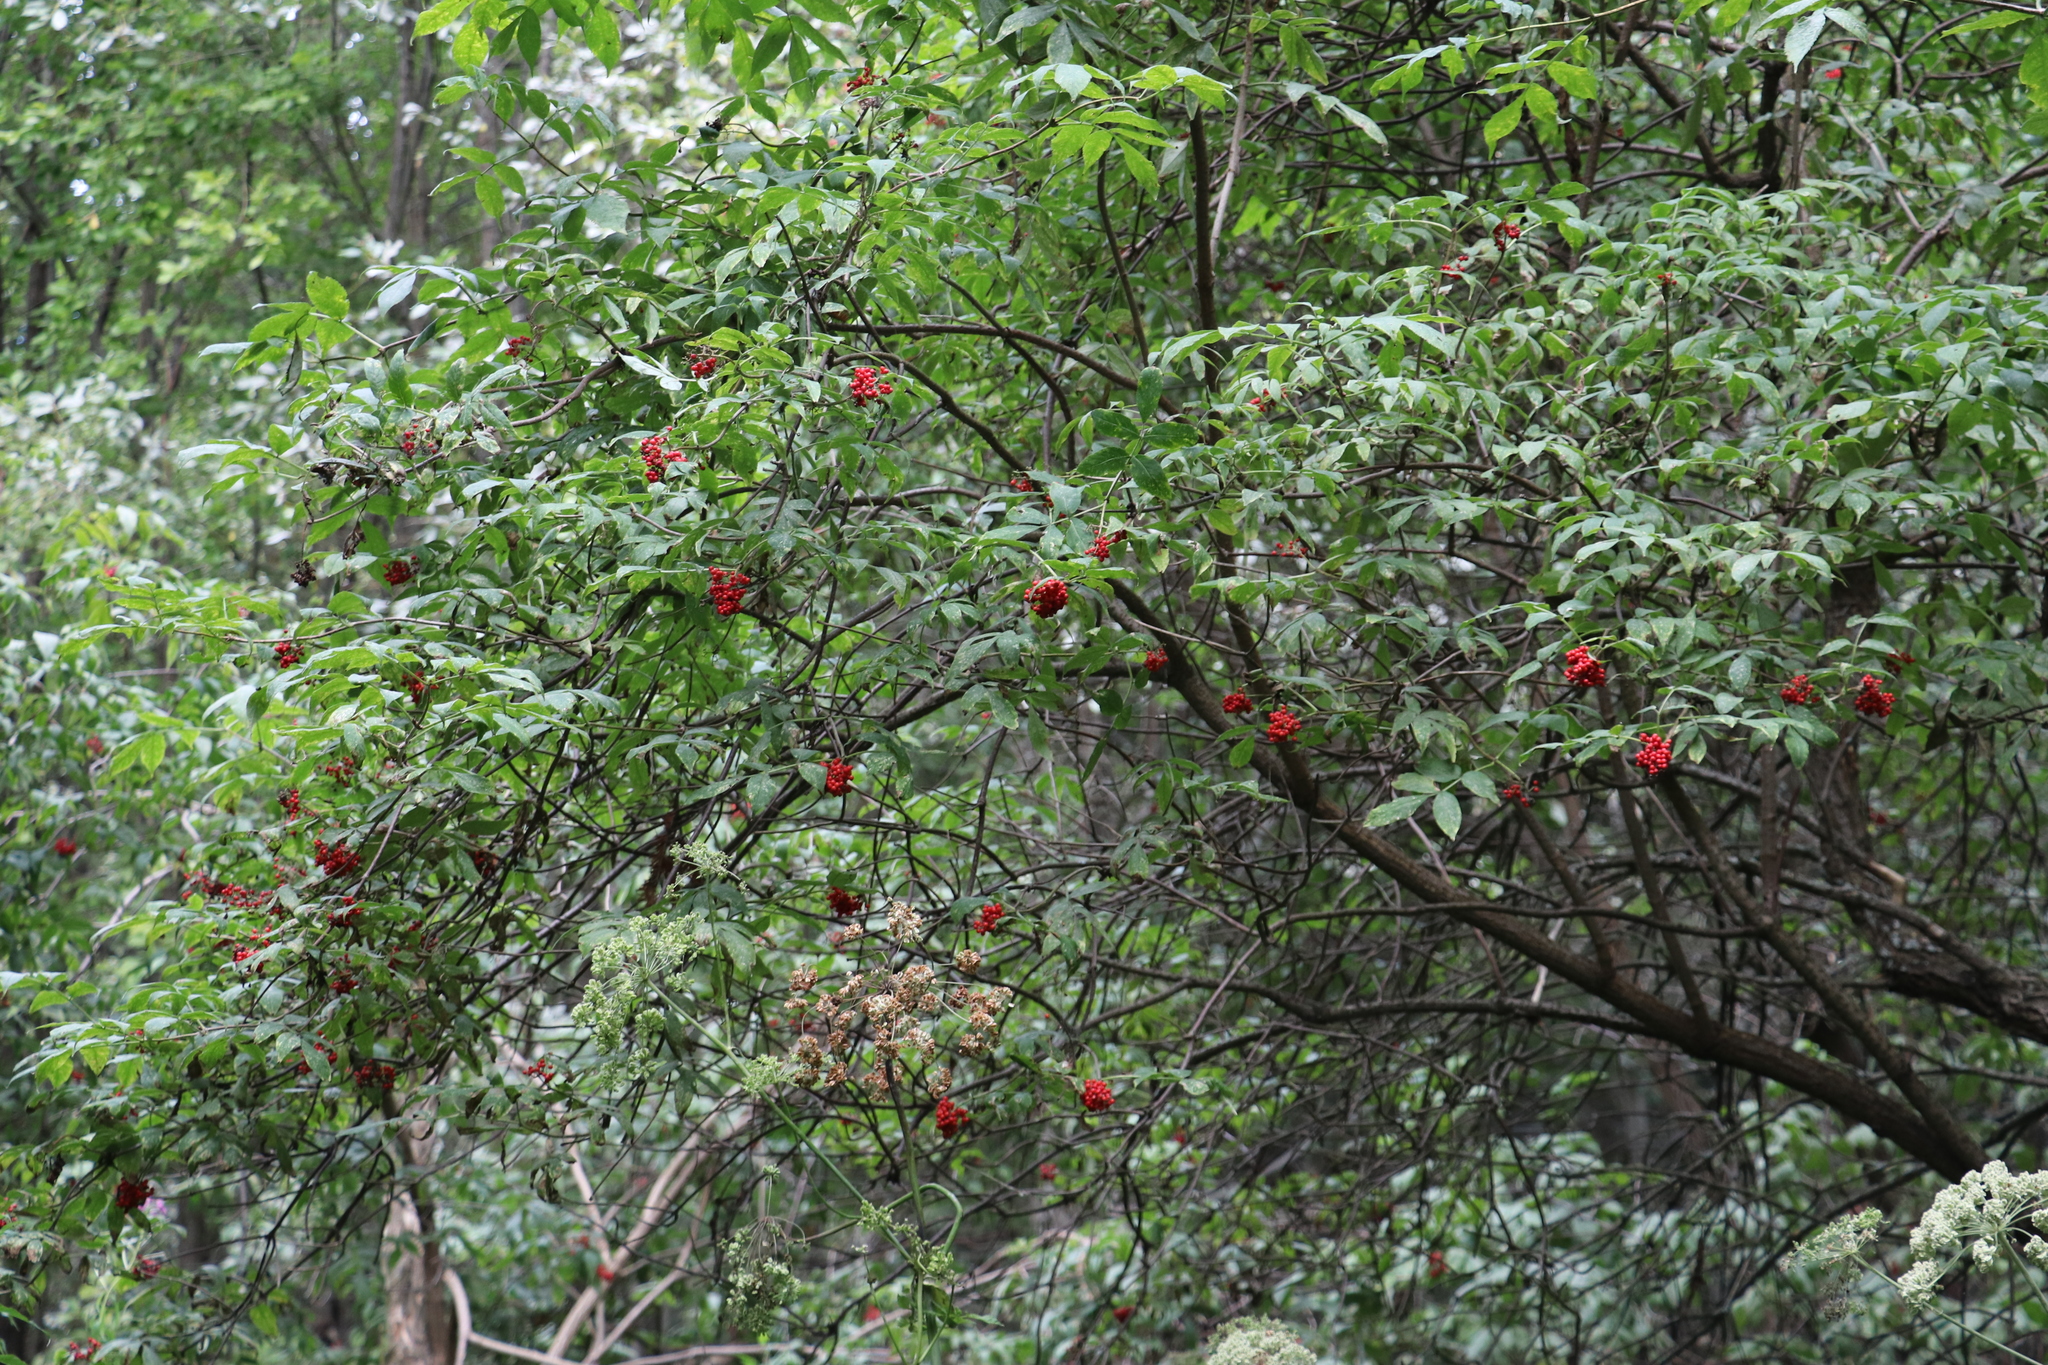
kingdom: Plantae
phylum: Tracheophyta
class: Magnoliopsida
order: Dipsacales
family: Viburnaceae
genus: Sambucus
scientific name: Sambucus sibirica
